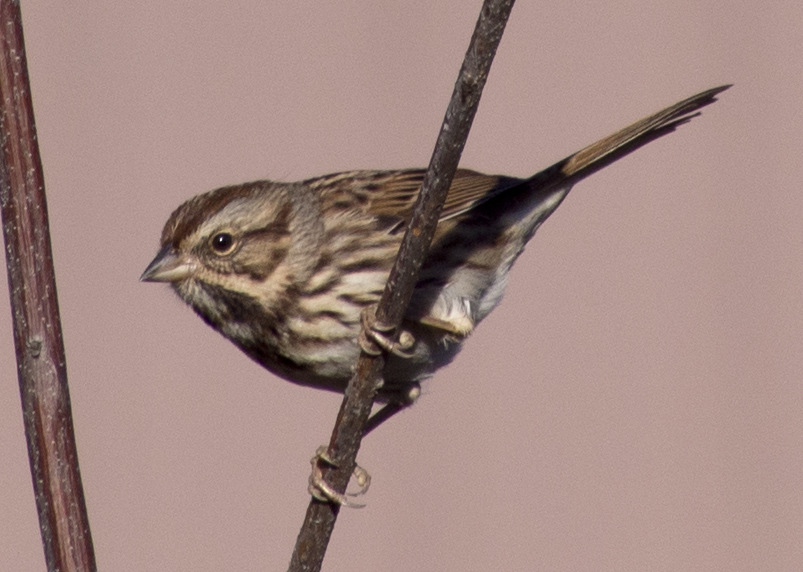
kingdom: Animalia
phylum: Chordata
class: Aves
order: Passeriformes
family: Passerellidae
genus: Melospiza
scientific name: Melospiza melodia
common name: Song sparrow
